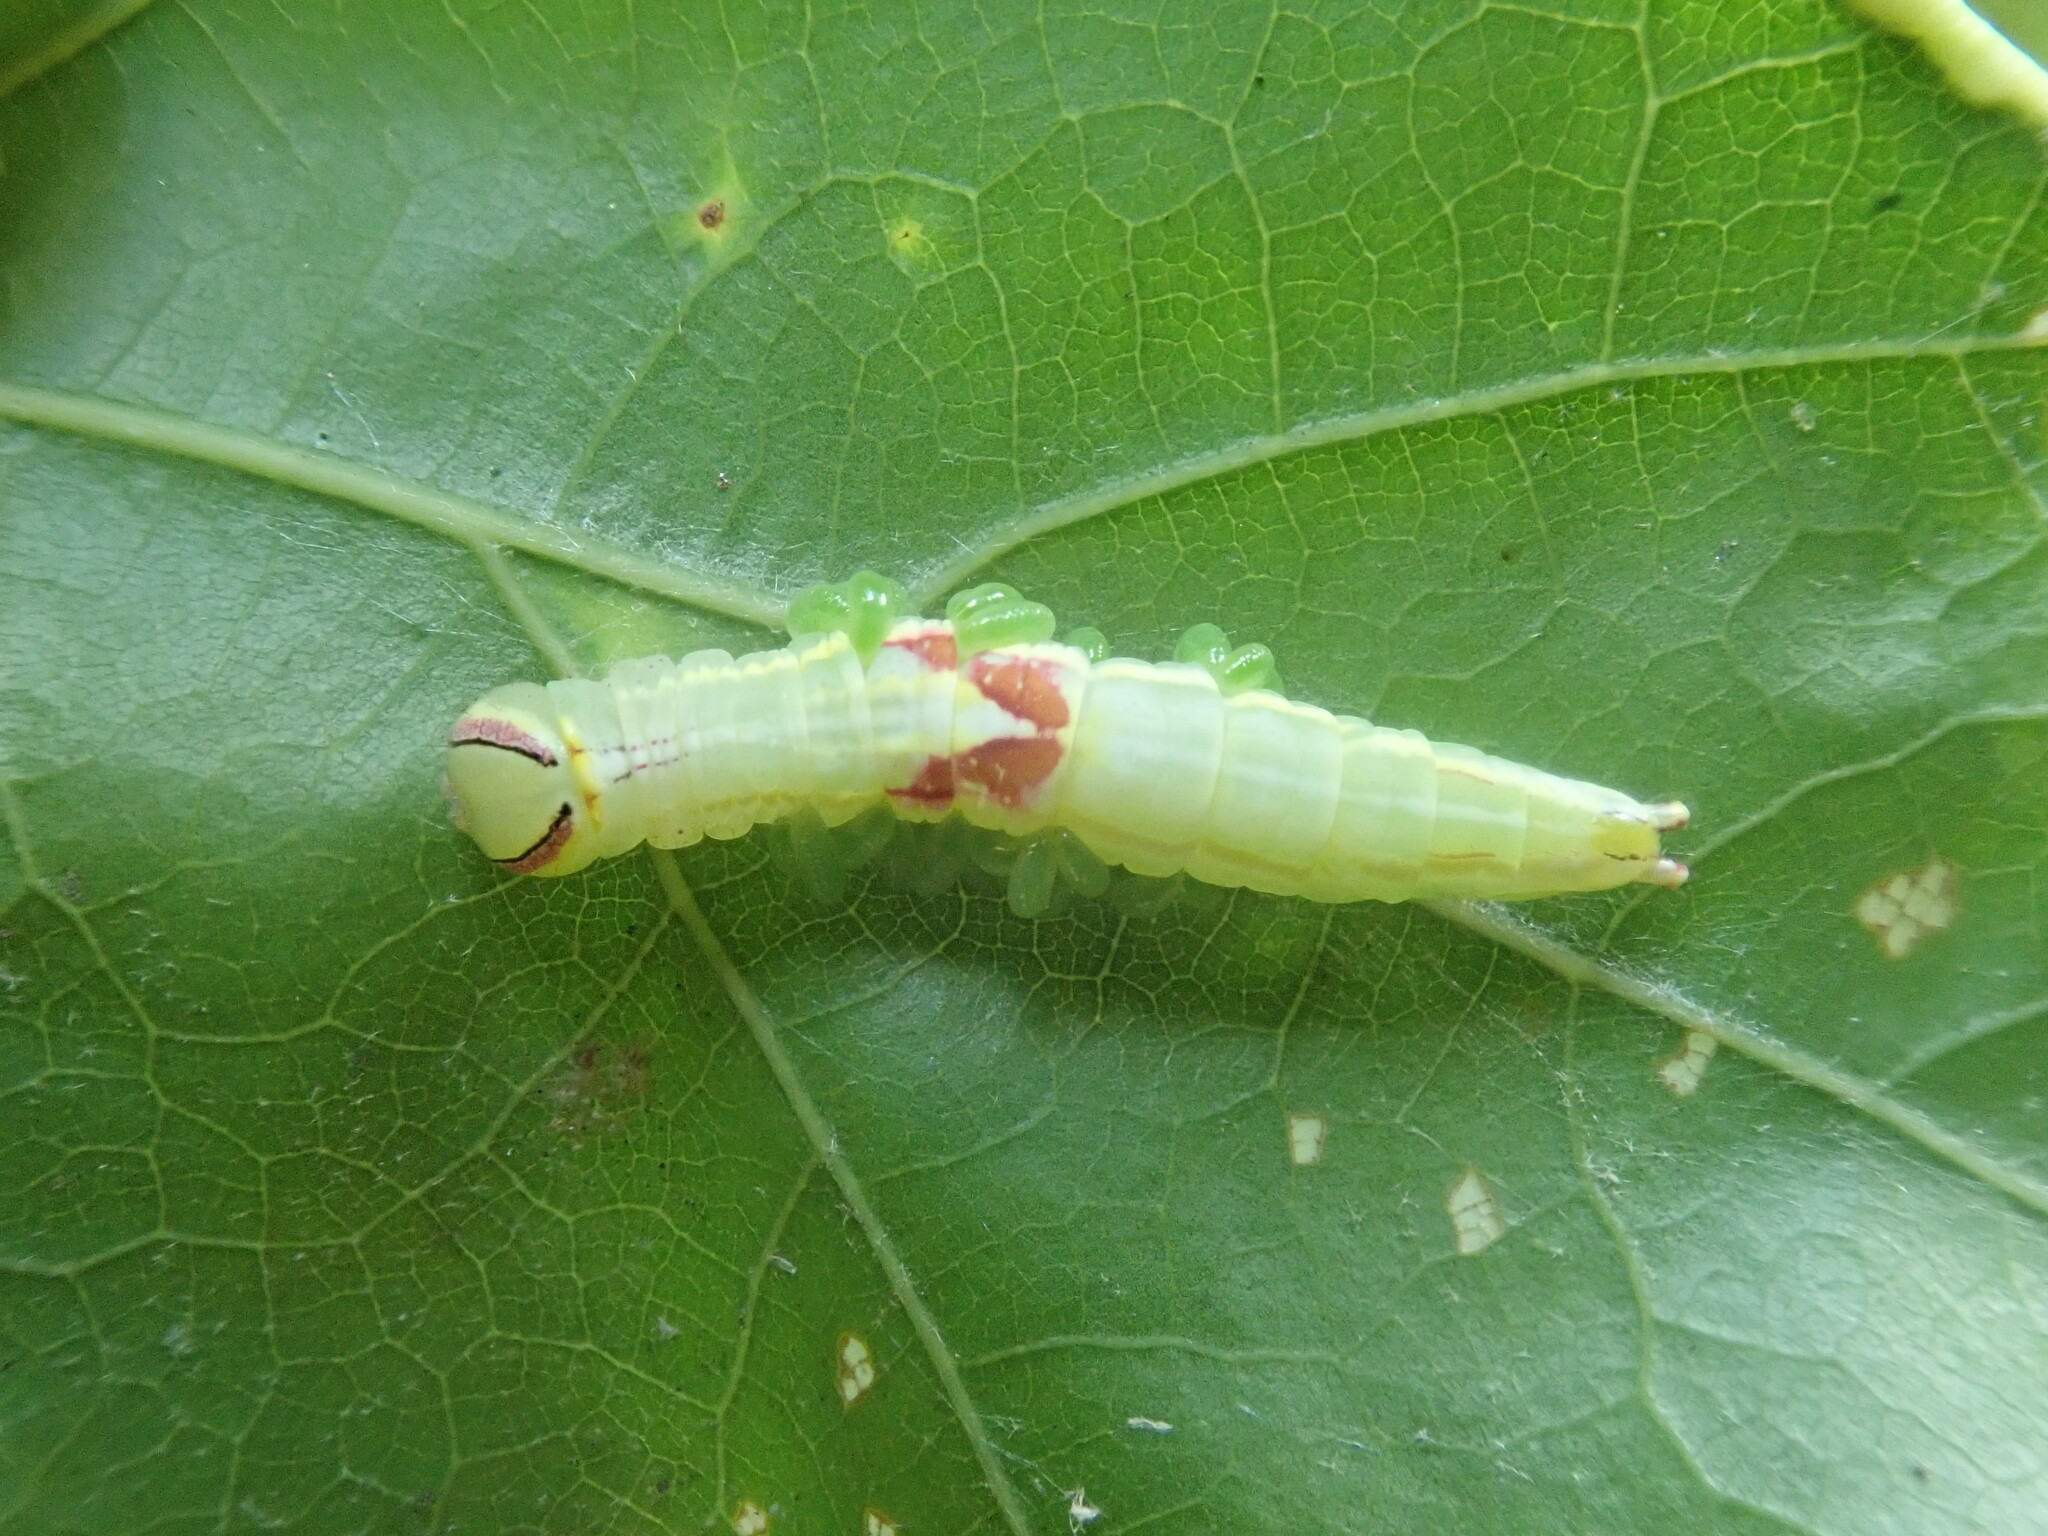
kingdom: Animalia
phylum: Arthropoda
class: Insecta
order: Lepidoptera
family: Notodontidae
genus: Disphragis
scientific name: Disphragis Cecrita guttivitta
